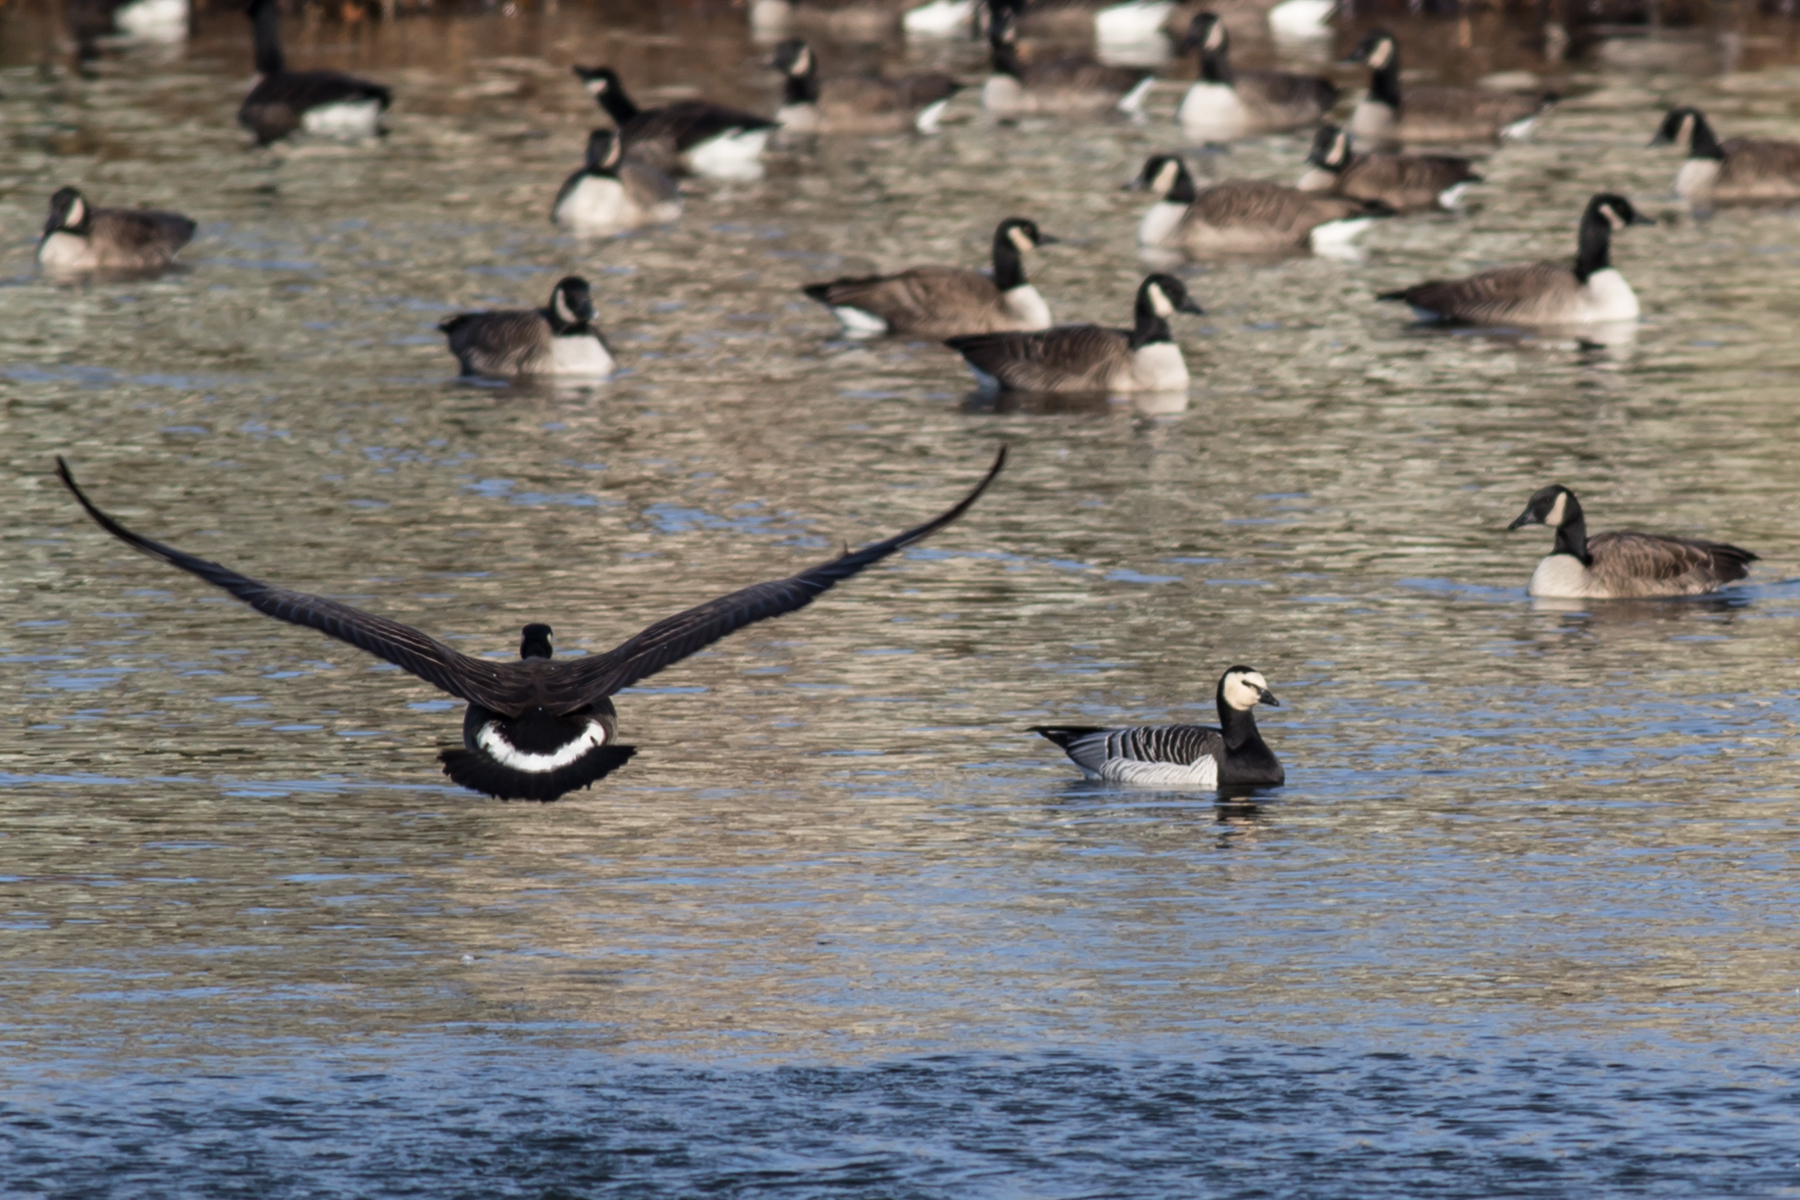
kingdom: Animalia
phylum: Chordata
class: Aves
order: Anseriformes
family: Anatidae
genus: Branta
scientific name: Branta leucopsis
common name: Barnacle goose
